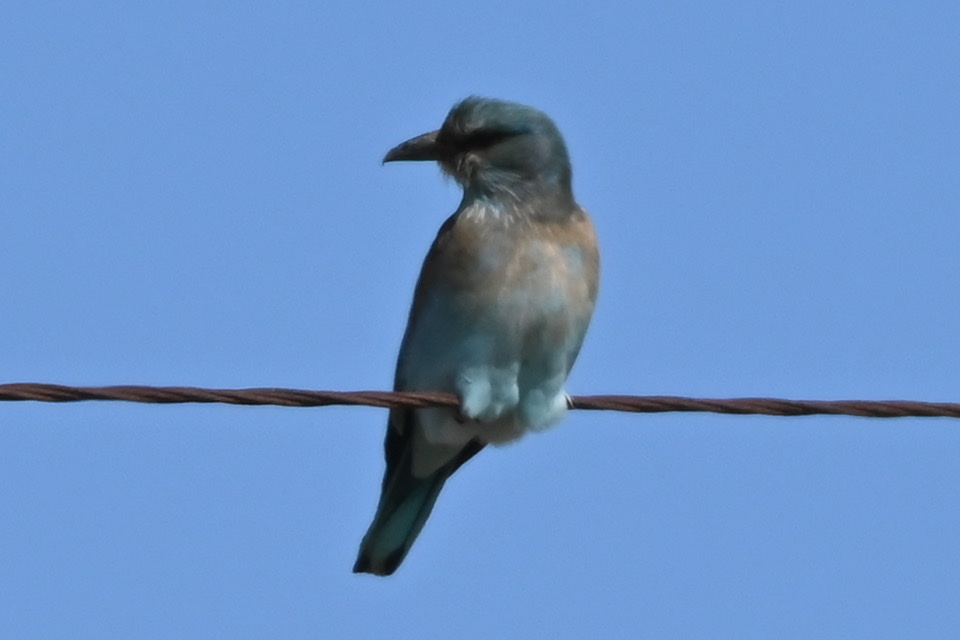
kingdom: Animalia
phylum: Chordata
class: Aves
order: Coraciiformes
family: Coraciidae
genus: Coracias
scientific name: Coracias garrulus
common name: European roller
